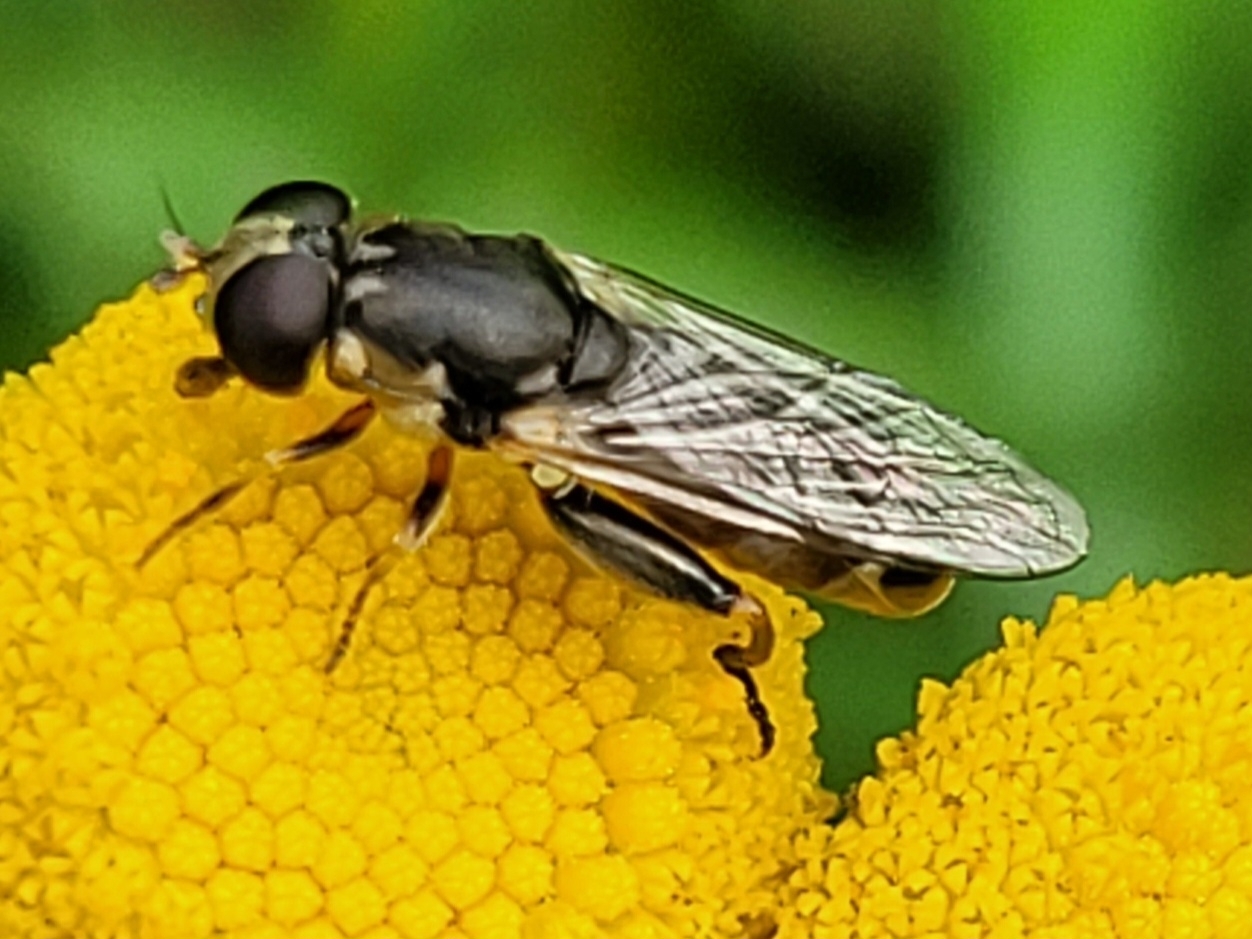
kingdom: Animalia
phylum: Arthropoda
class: Insecta
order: Diptera
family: Syrphidae
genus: Syritta
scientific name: Syritta pipiens
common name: Hover fly
